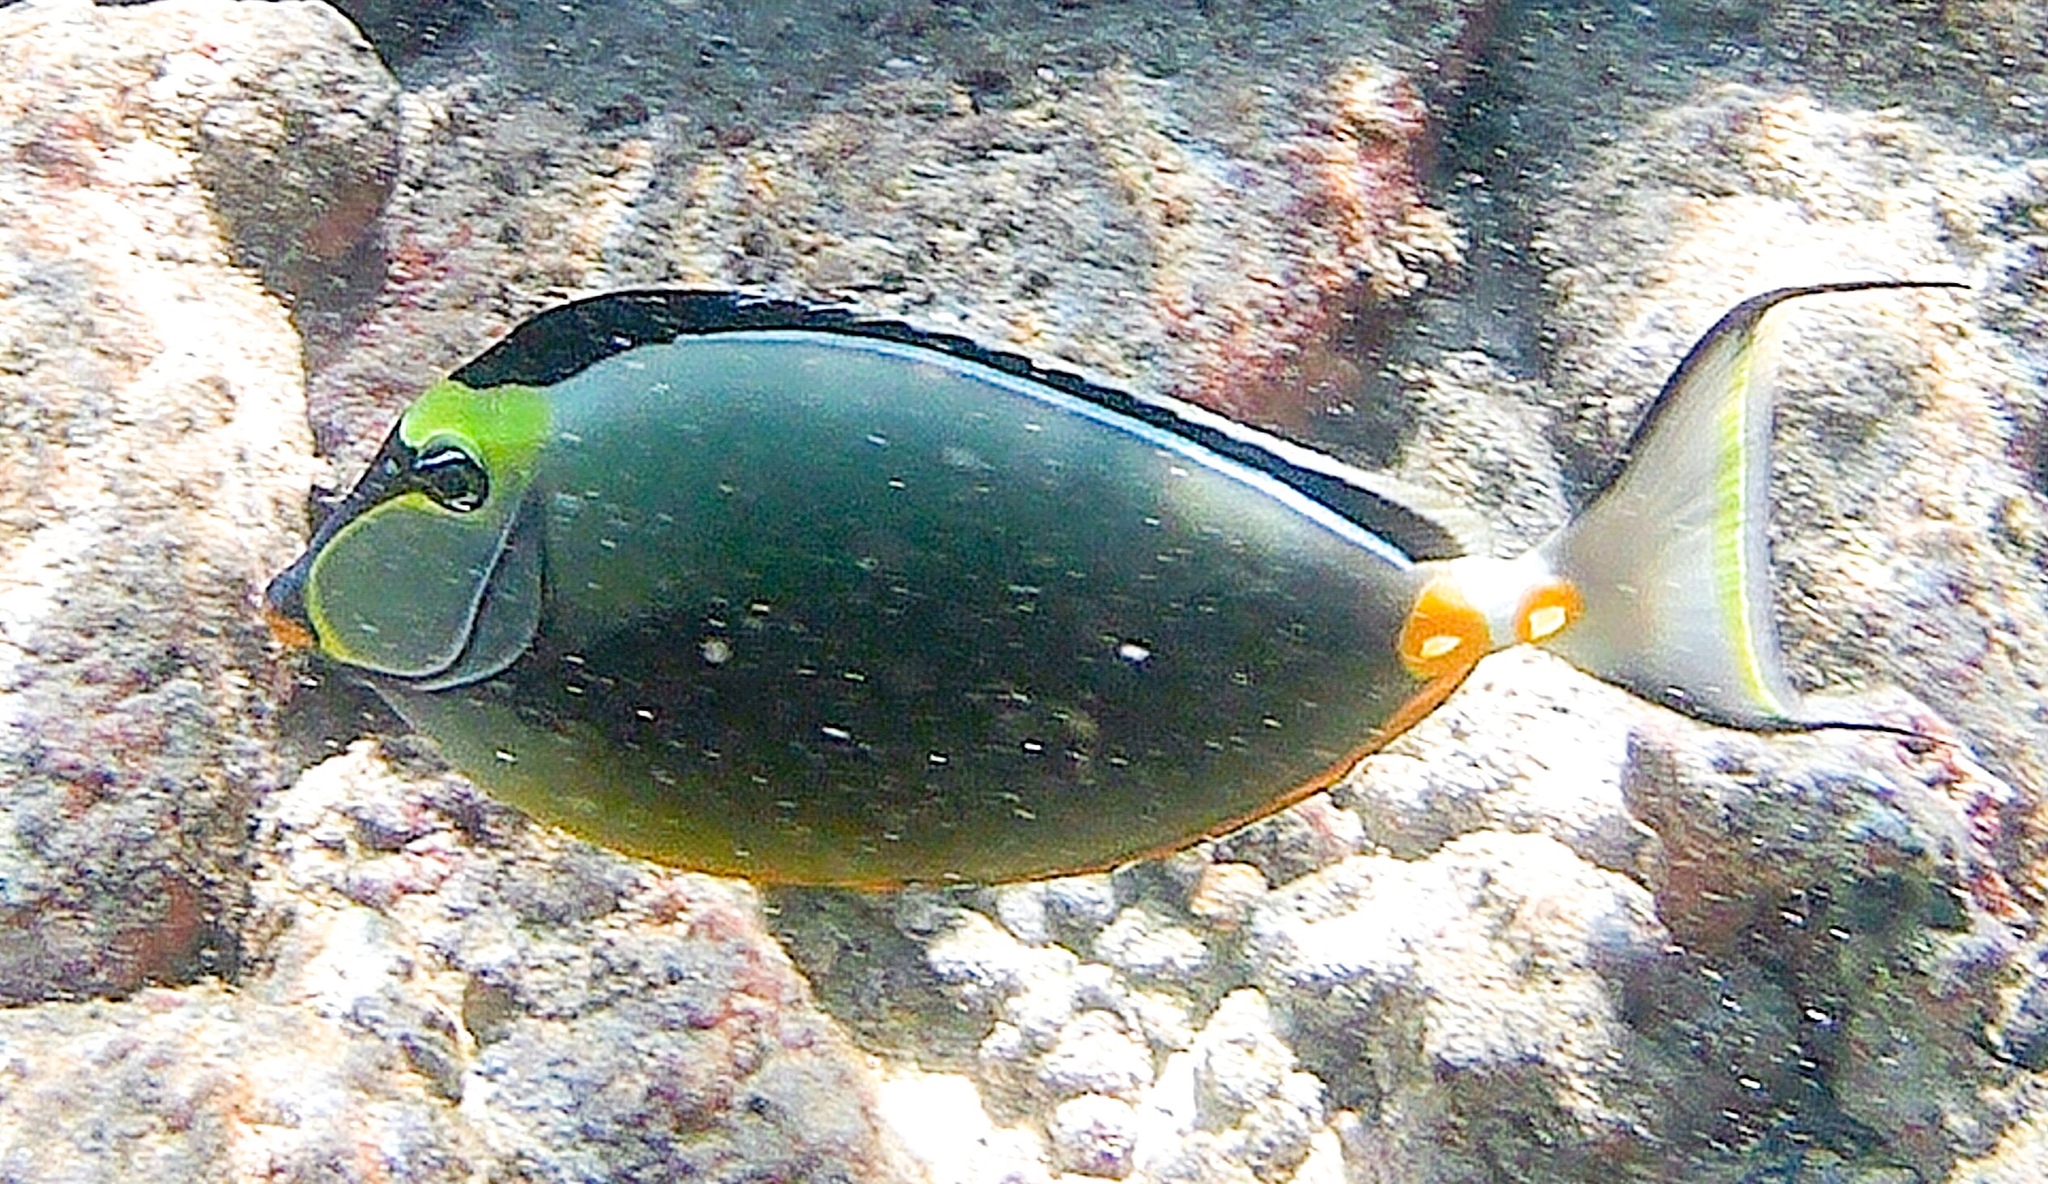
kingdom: Animalia
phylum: Chordata
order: Perciformes
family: Acanthuridae
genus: Naso
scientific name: Naso lituratus
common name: Orangespine unicornfish
